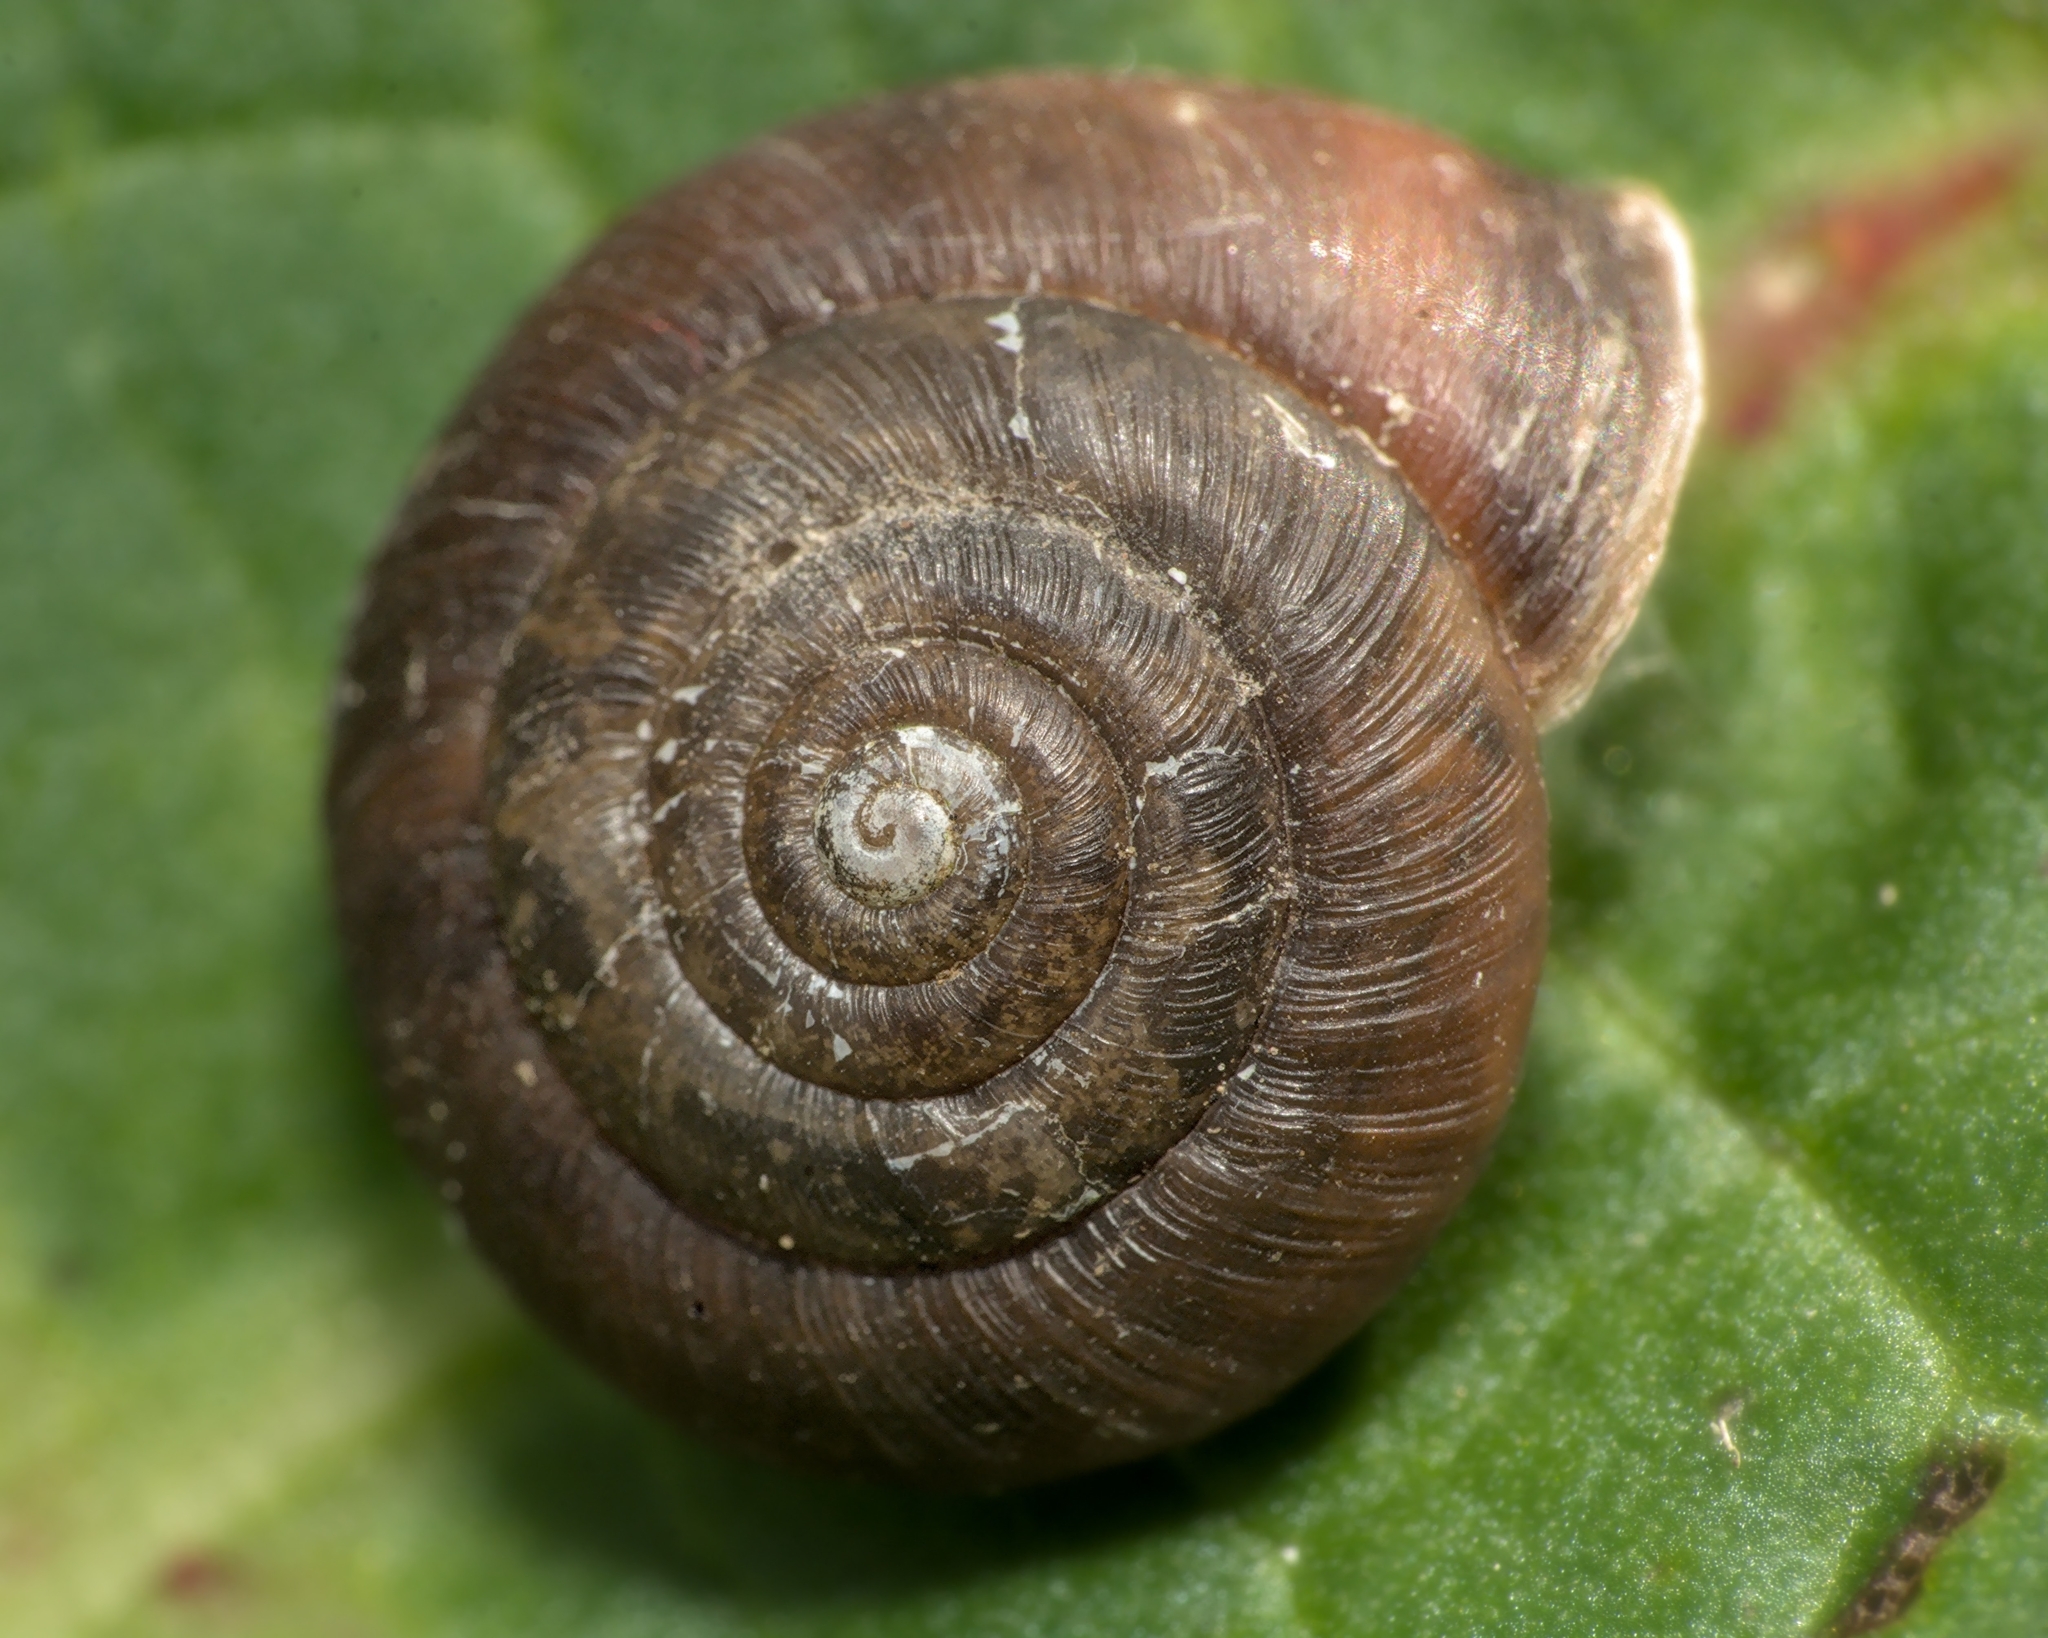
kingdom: Animalia
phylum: Mollusca
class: Gastropoda
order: Stylommatophora
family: Hygromiidae
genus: Trochulus
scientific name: Trochulus striolatus
